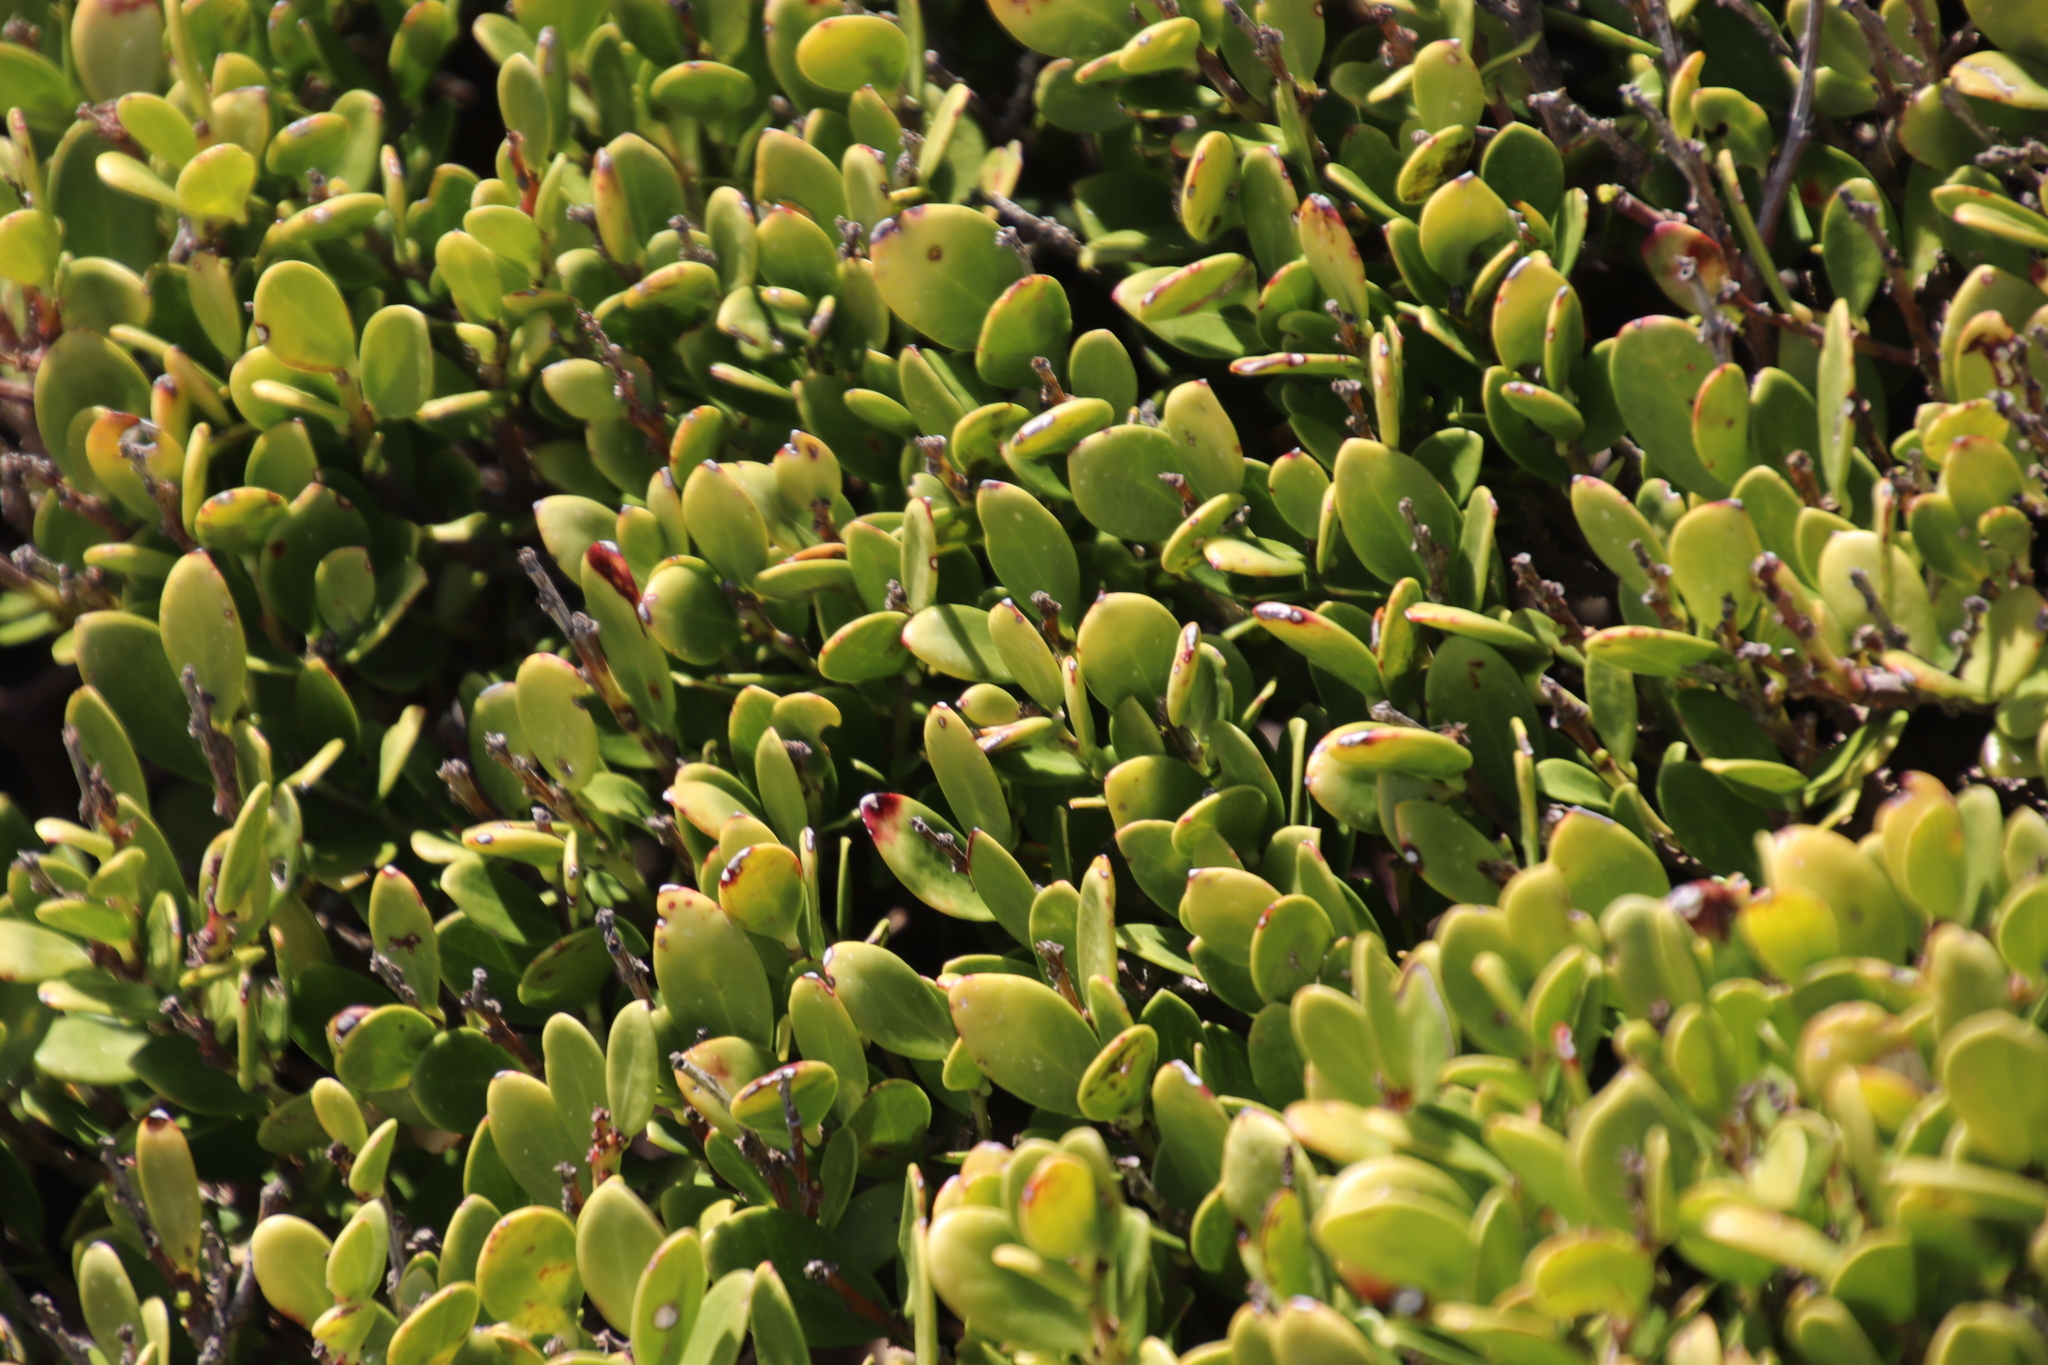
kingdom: Plantae
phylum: Tracheophyta
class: Magnoliopsida
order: Ericales
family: Ebenaceae
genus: Euclea
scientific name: Euclea racemosa
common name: Dune guarri
